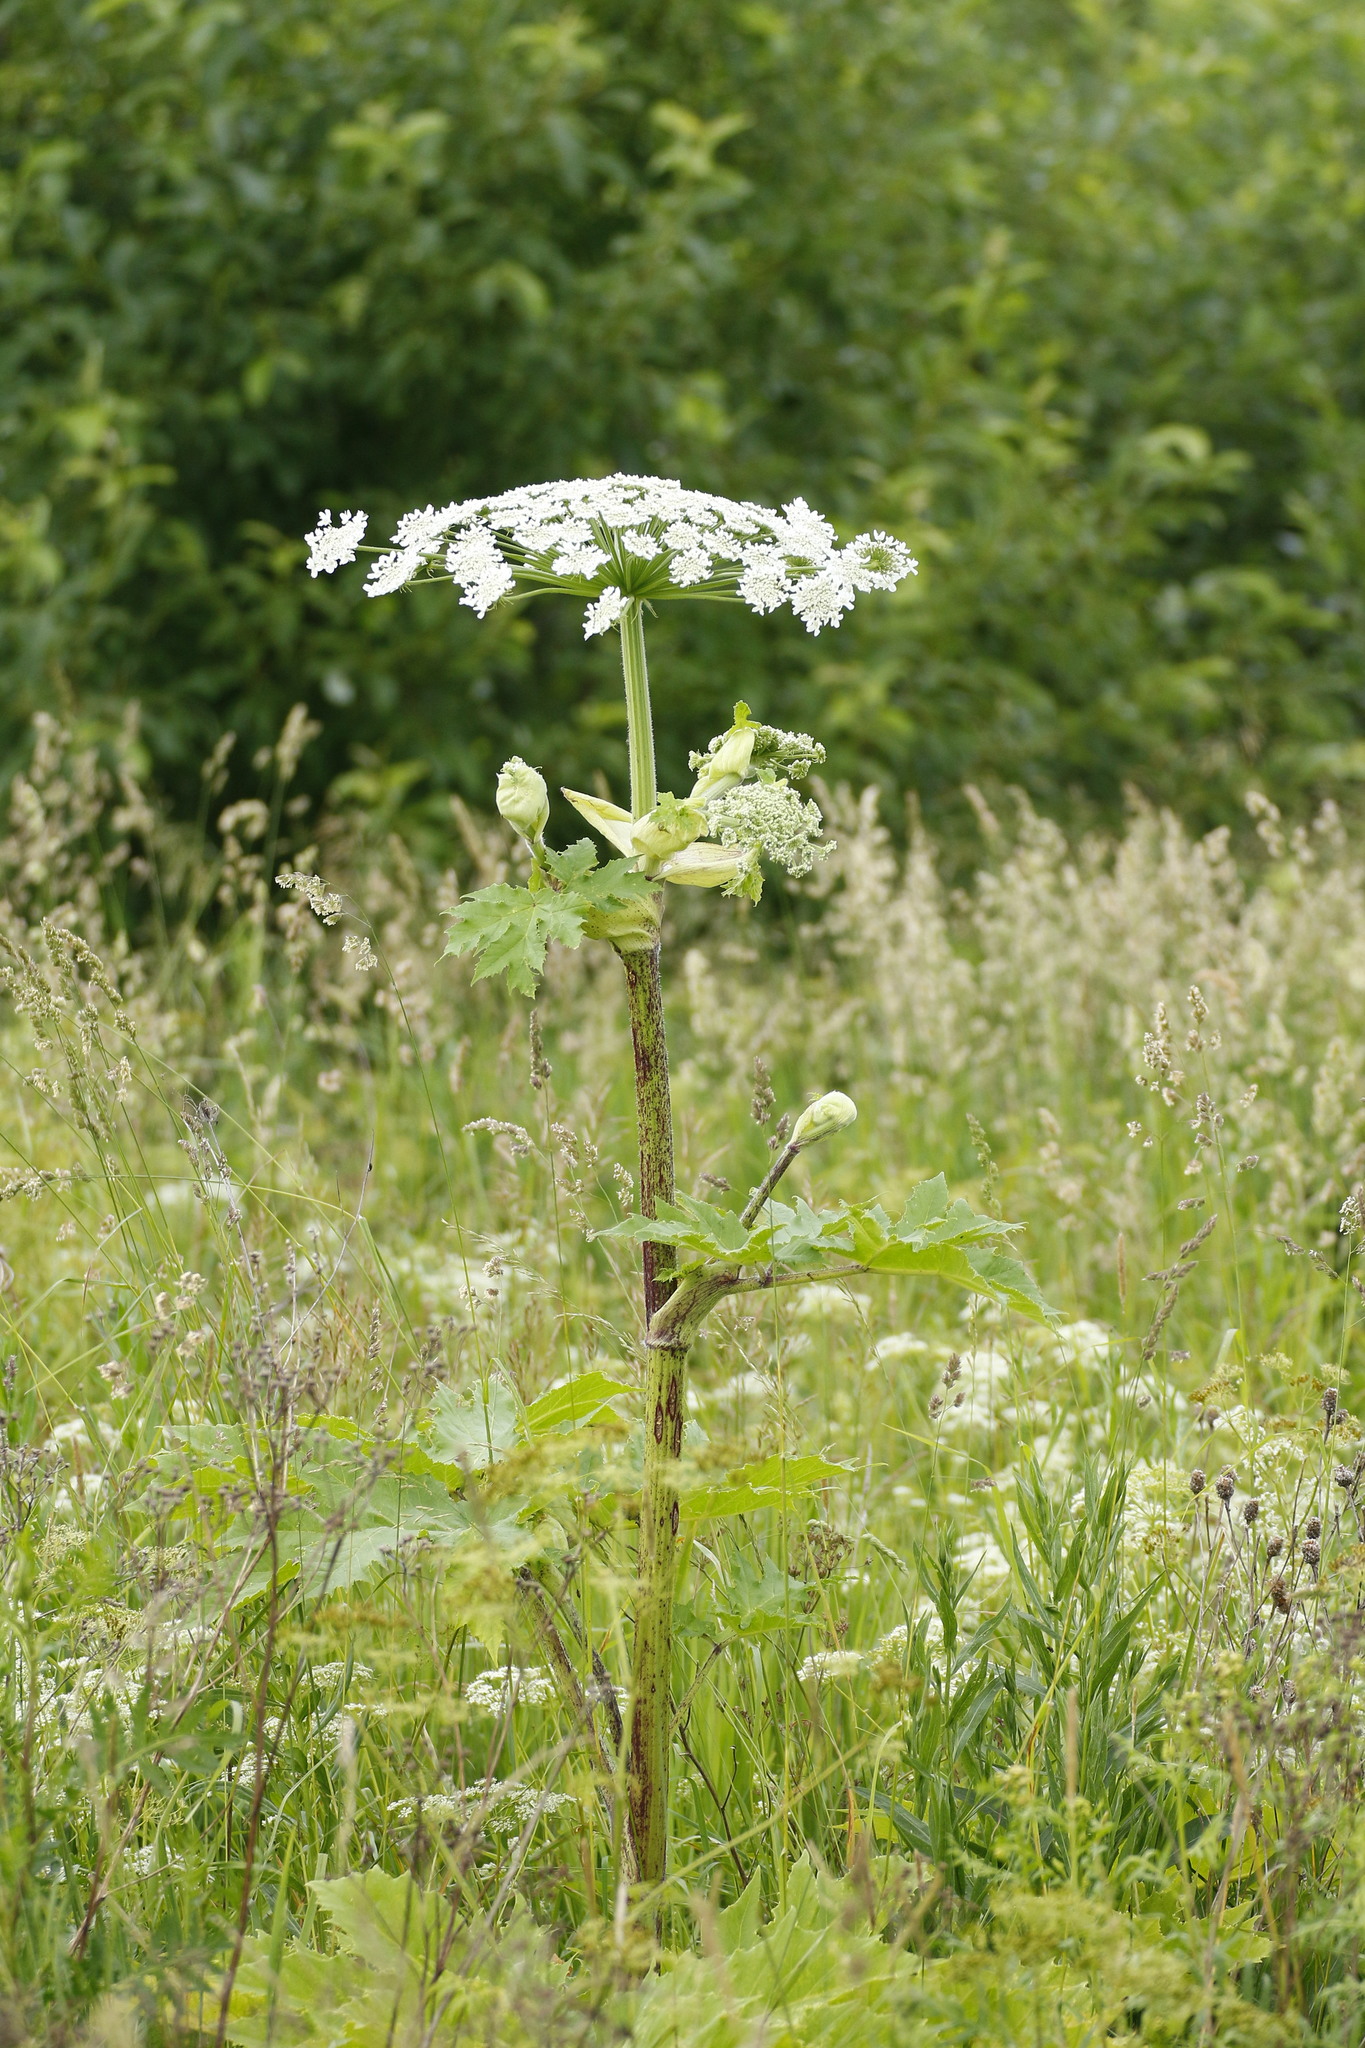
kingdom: Plantae
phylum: Tracheophyta
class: Magnoliopsida
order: Apiales
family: Apiaceae
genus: Heracleum
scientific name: Heracleum sosnowskyi
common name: Sosnowsky's hogweed
